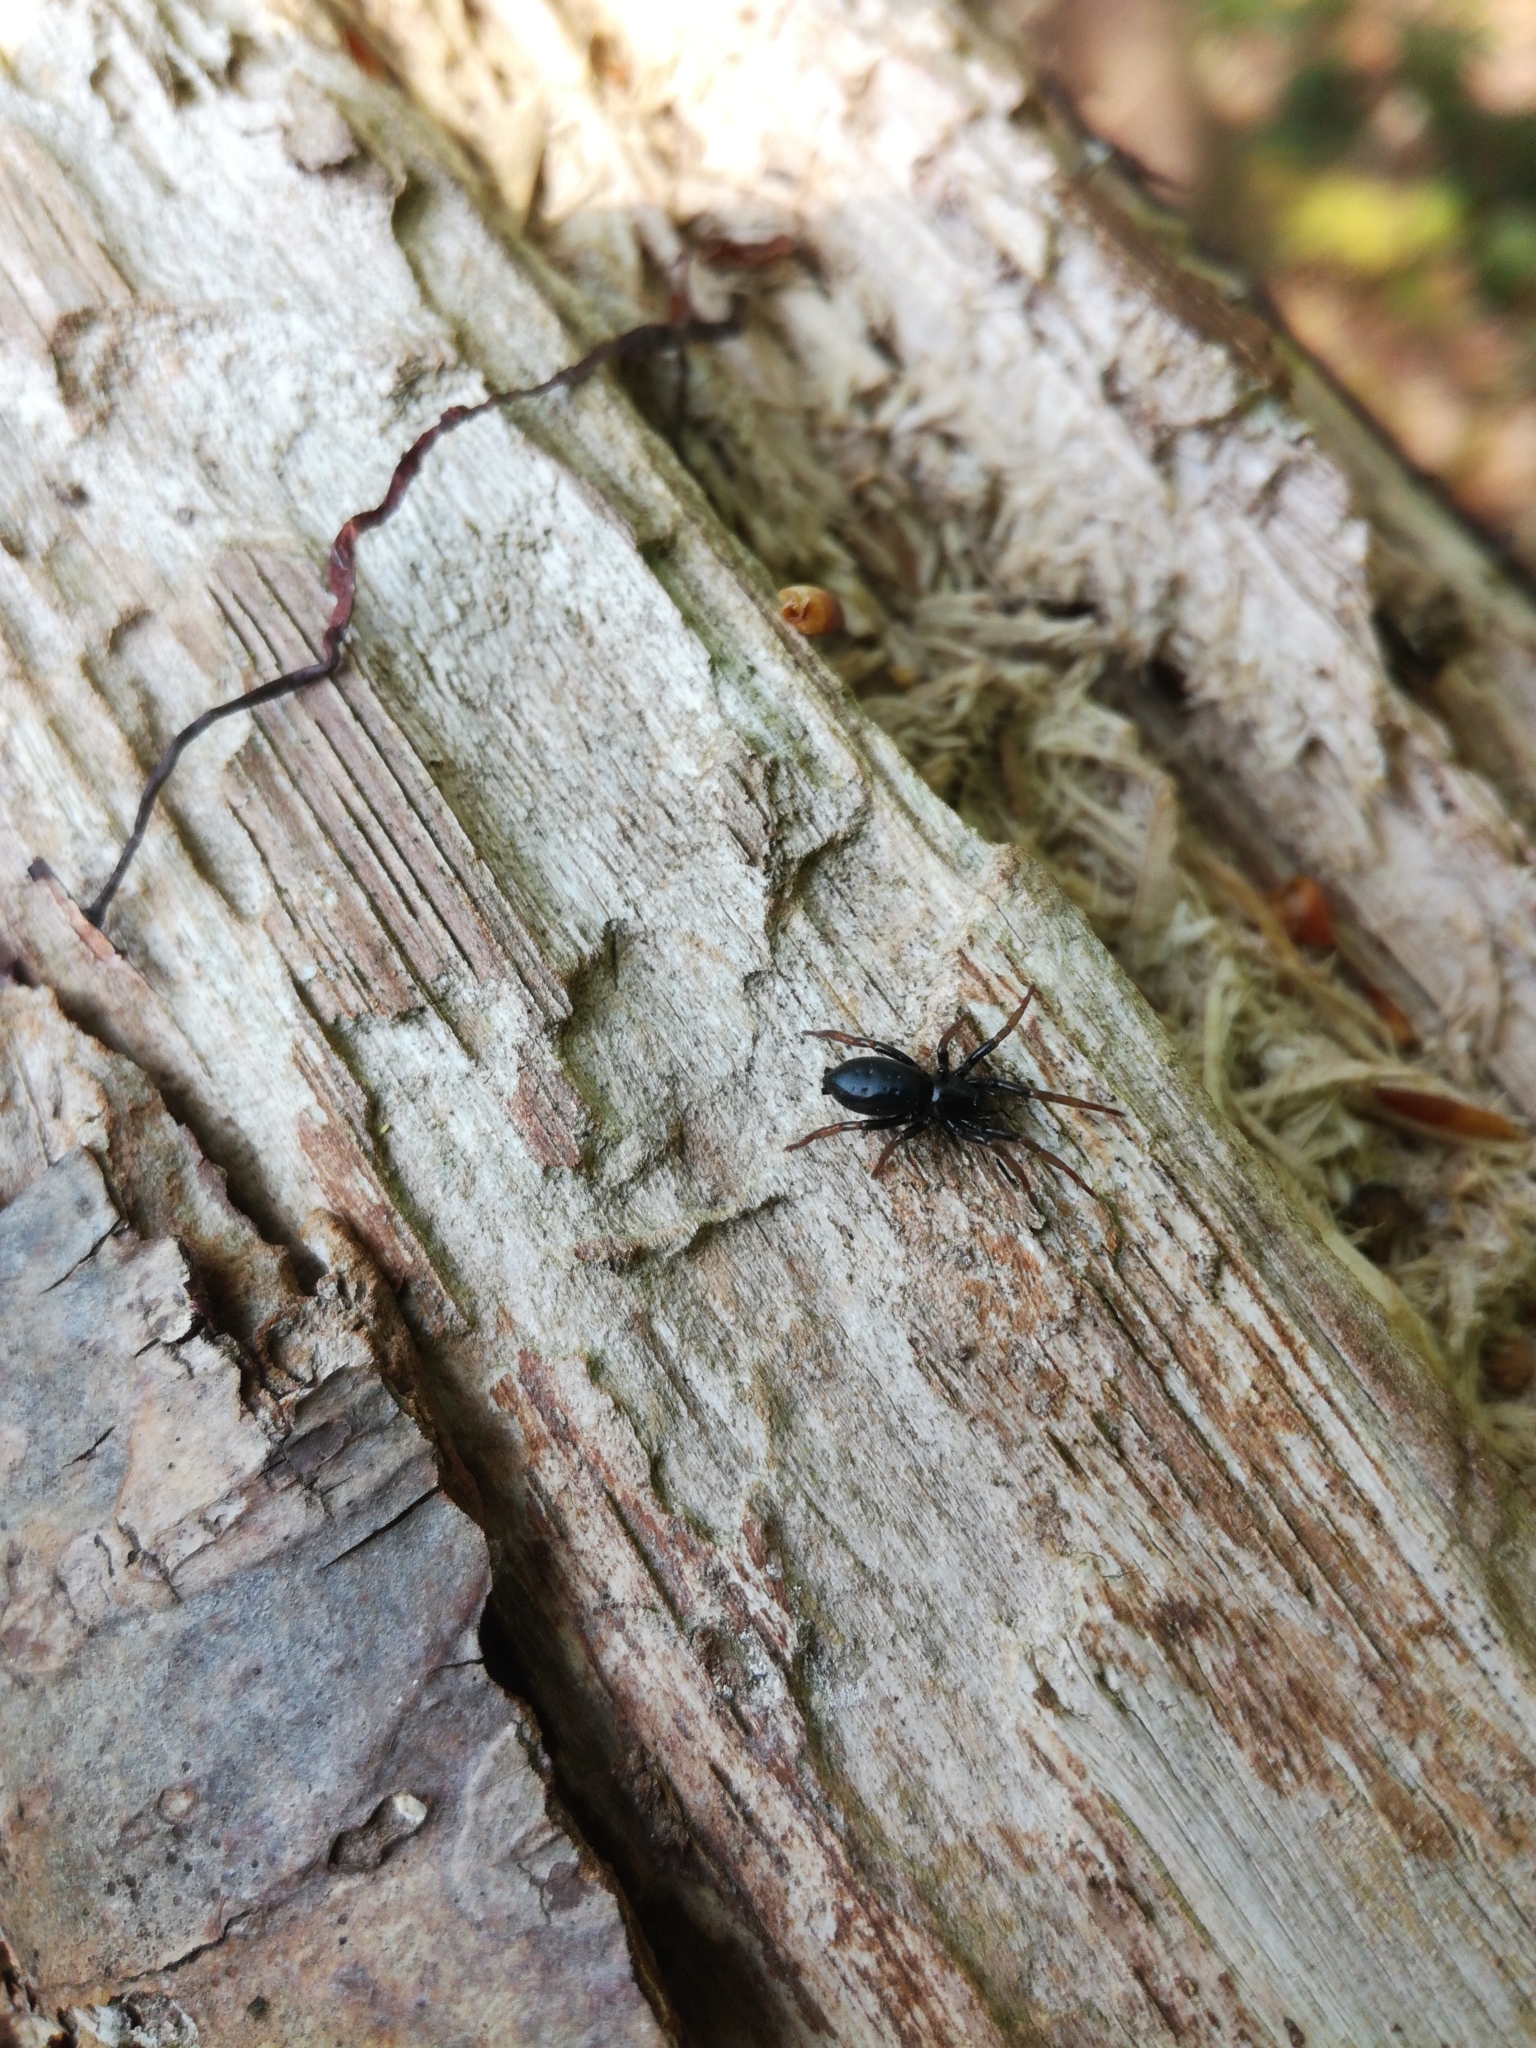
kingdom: Animalia
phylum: Arthropoda
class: Arachnida
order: Araneae
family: Gnaphosidae
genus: Trachyzelotes
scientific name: Trachyzelotes pedestris
